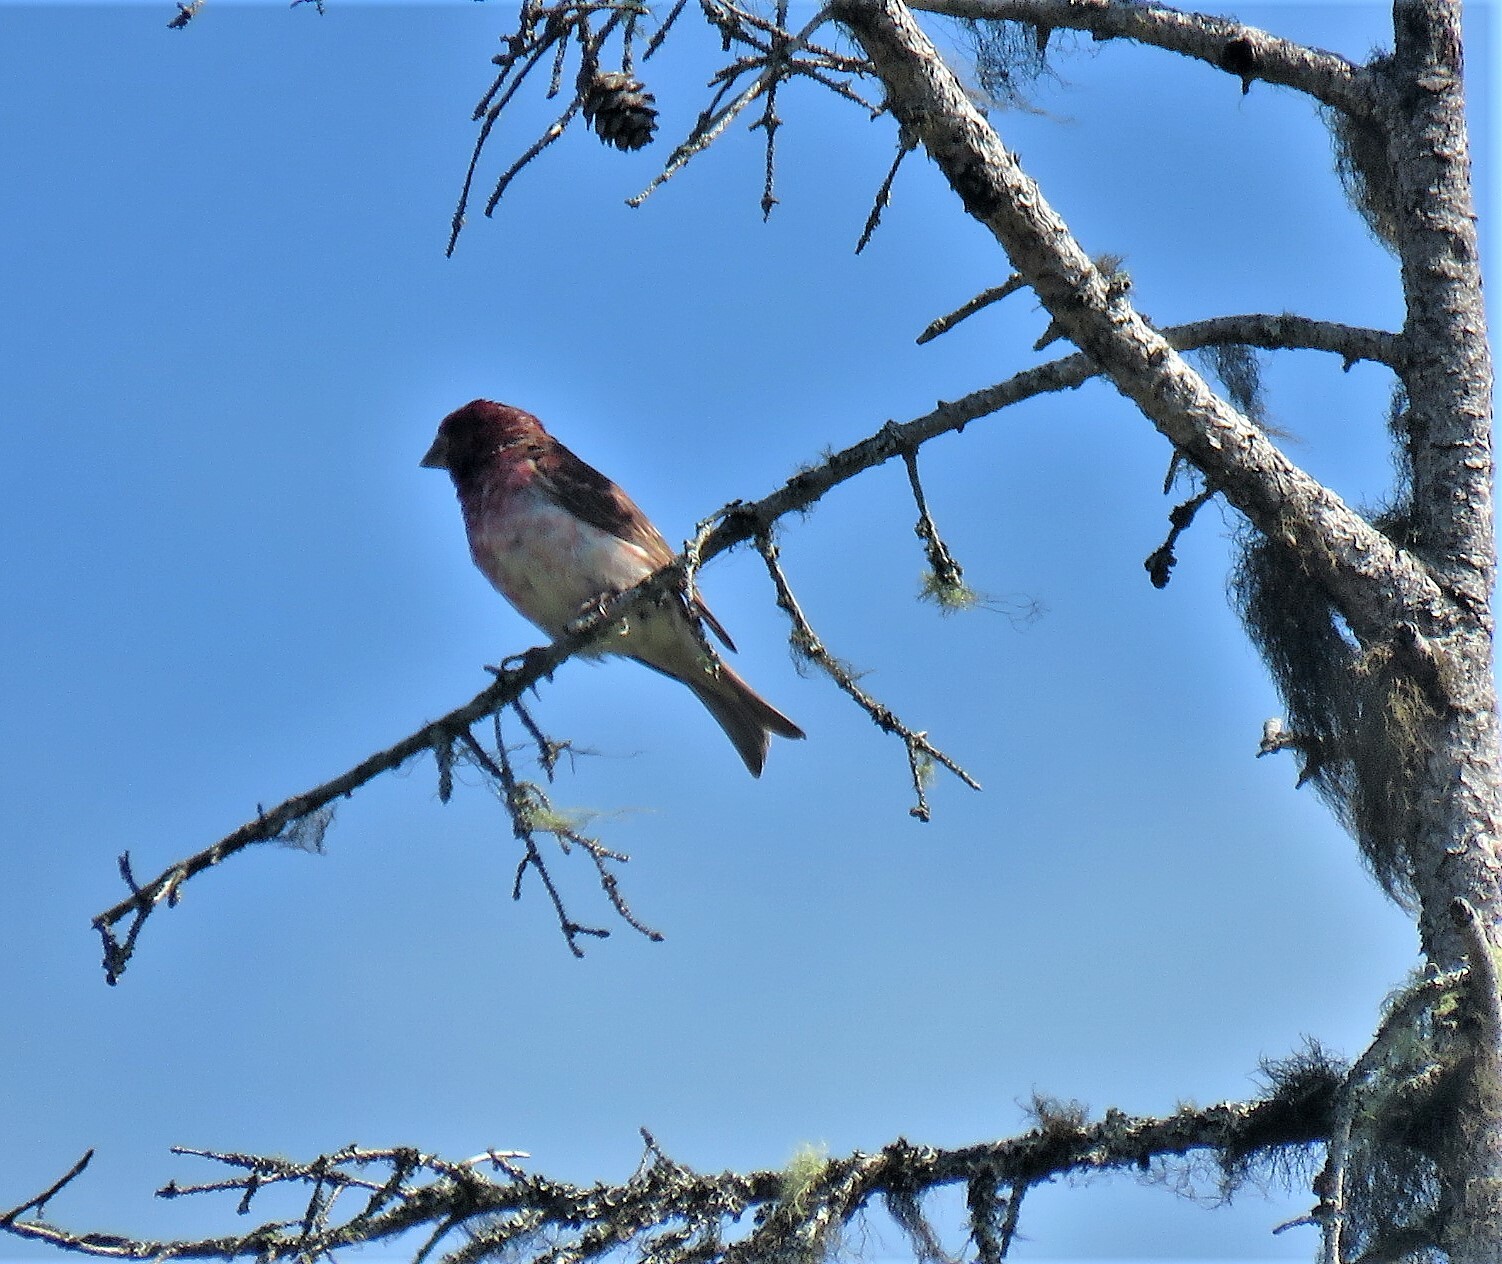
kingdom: Animalia
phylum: Chordata
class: Aves
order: Passeriformes
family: Fringillidae
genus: Haemorhous
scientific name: Haemorhous purpureus
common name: Purple finch
